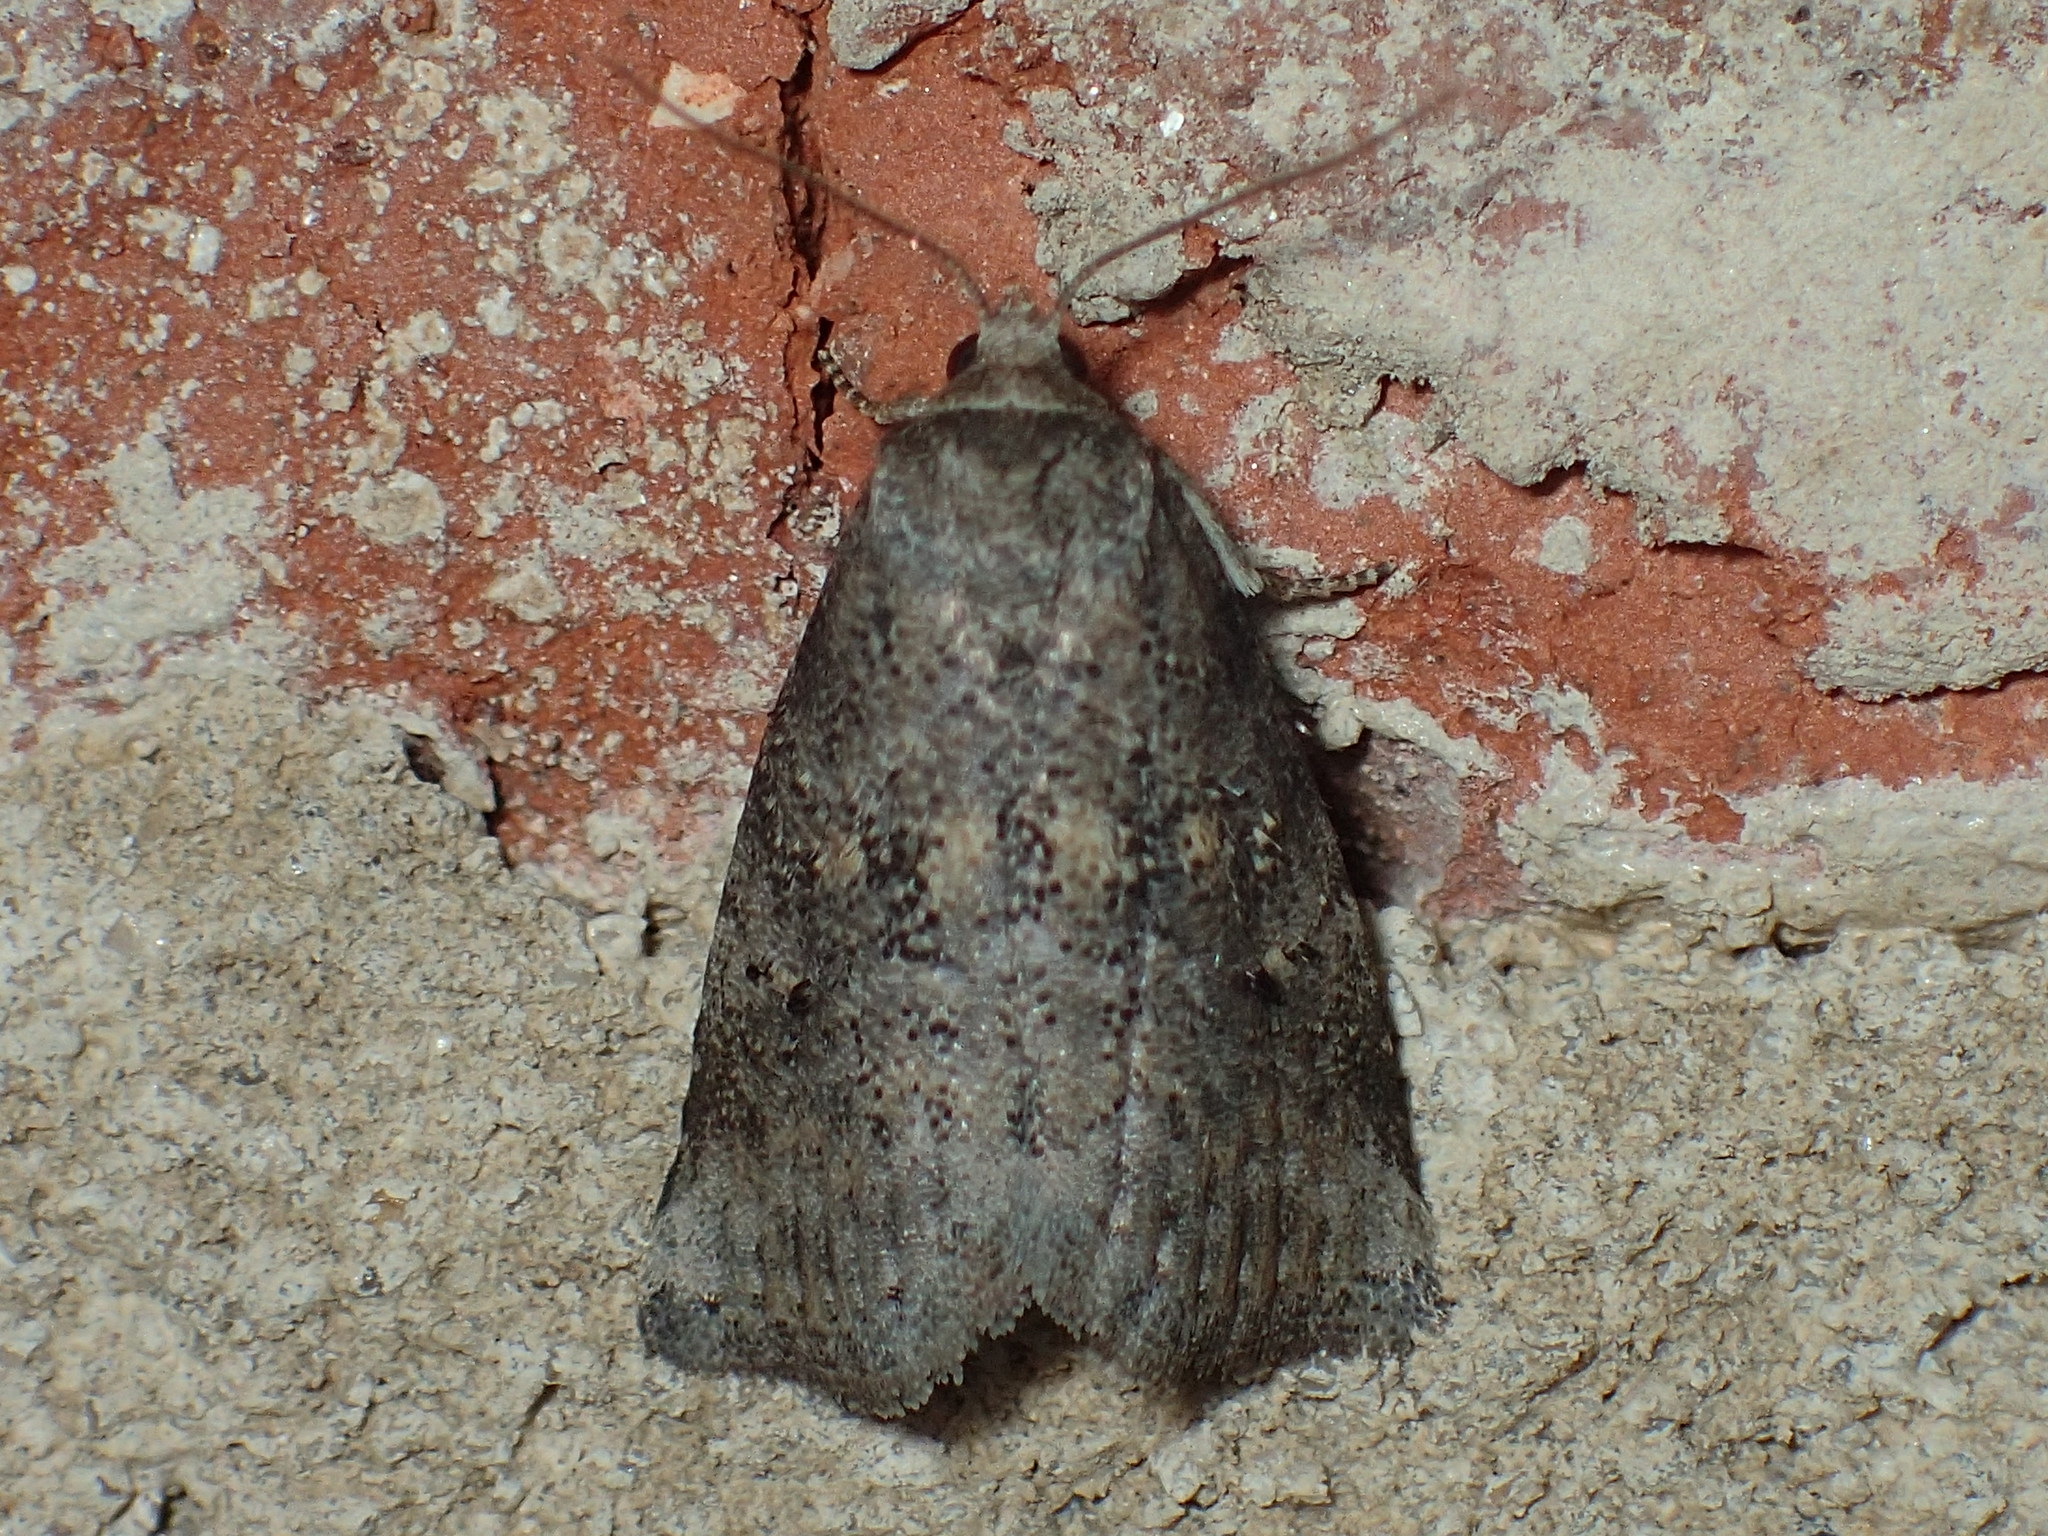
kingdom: Animalia
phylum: Arthropoda
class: Insecta
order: Lepidoptera
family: Erebidae
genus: Hyperstrotia
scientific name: Hyperstrotia nana
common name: White-lined graylet
